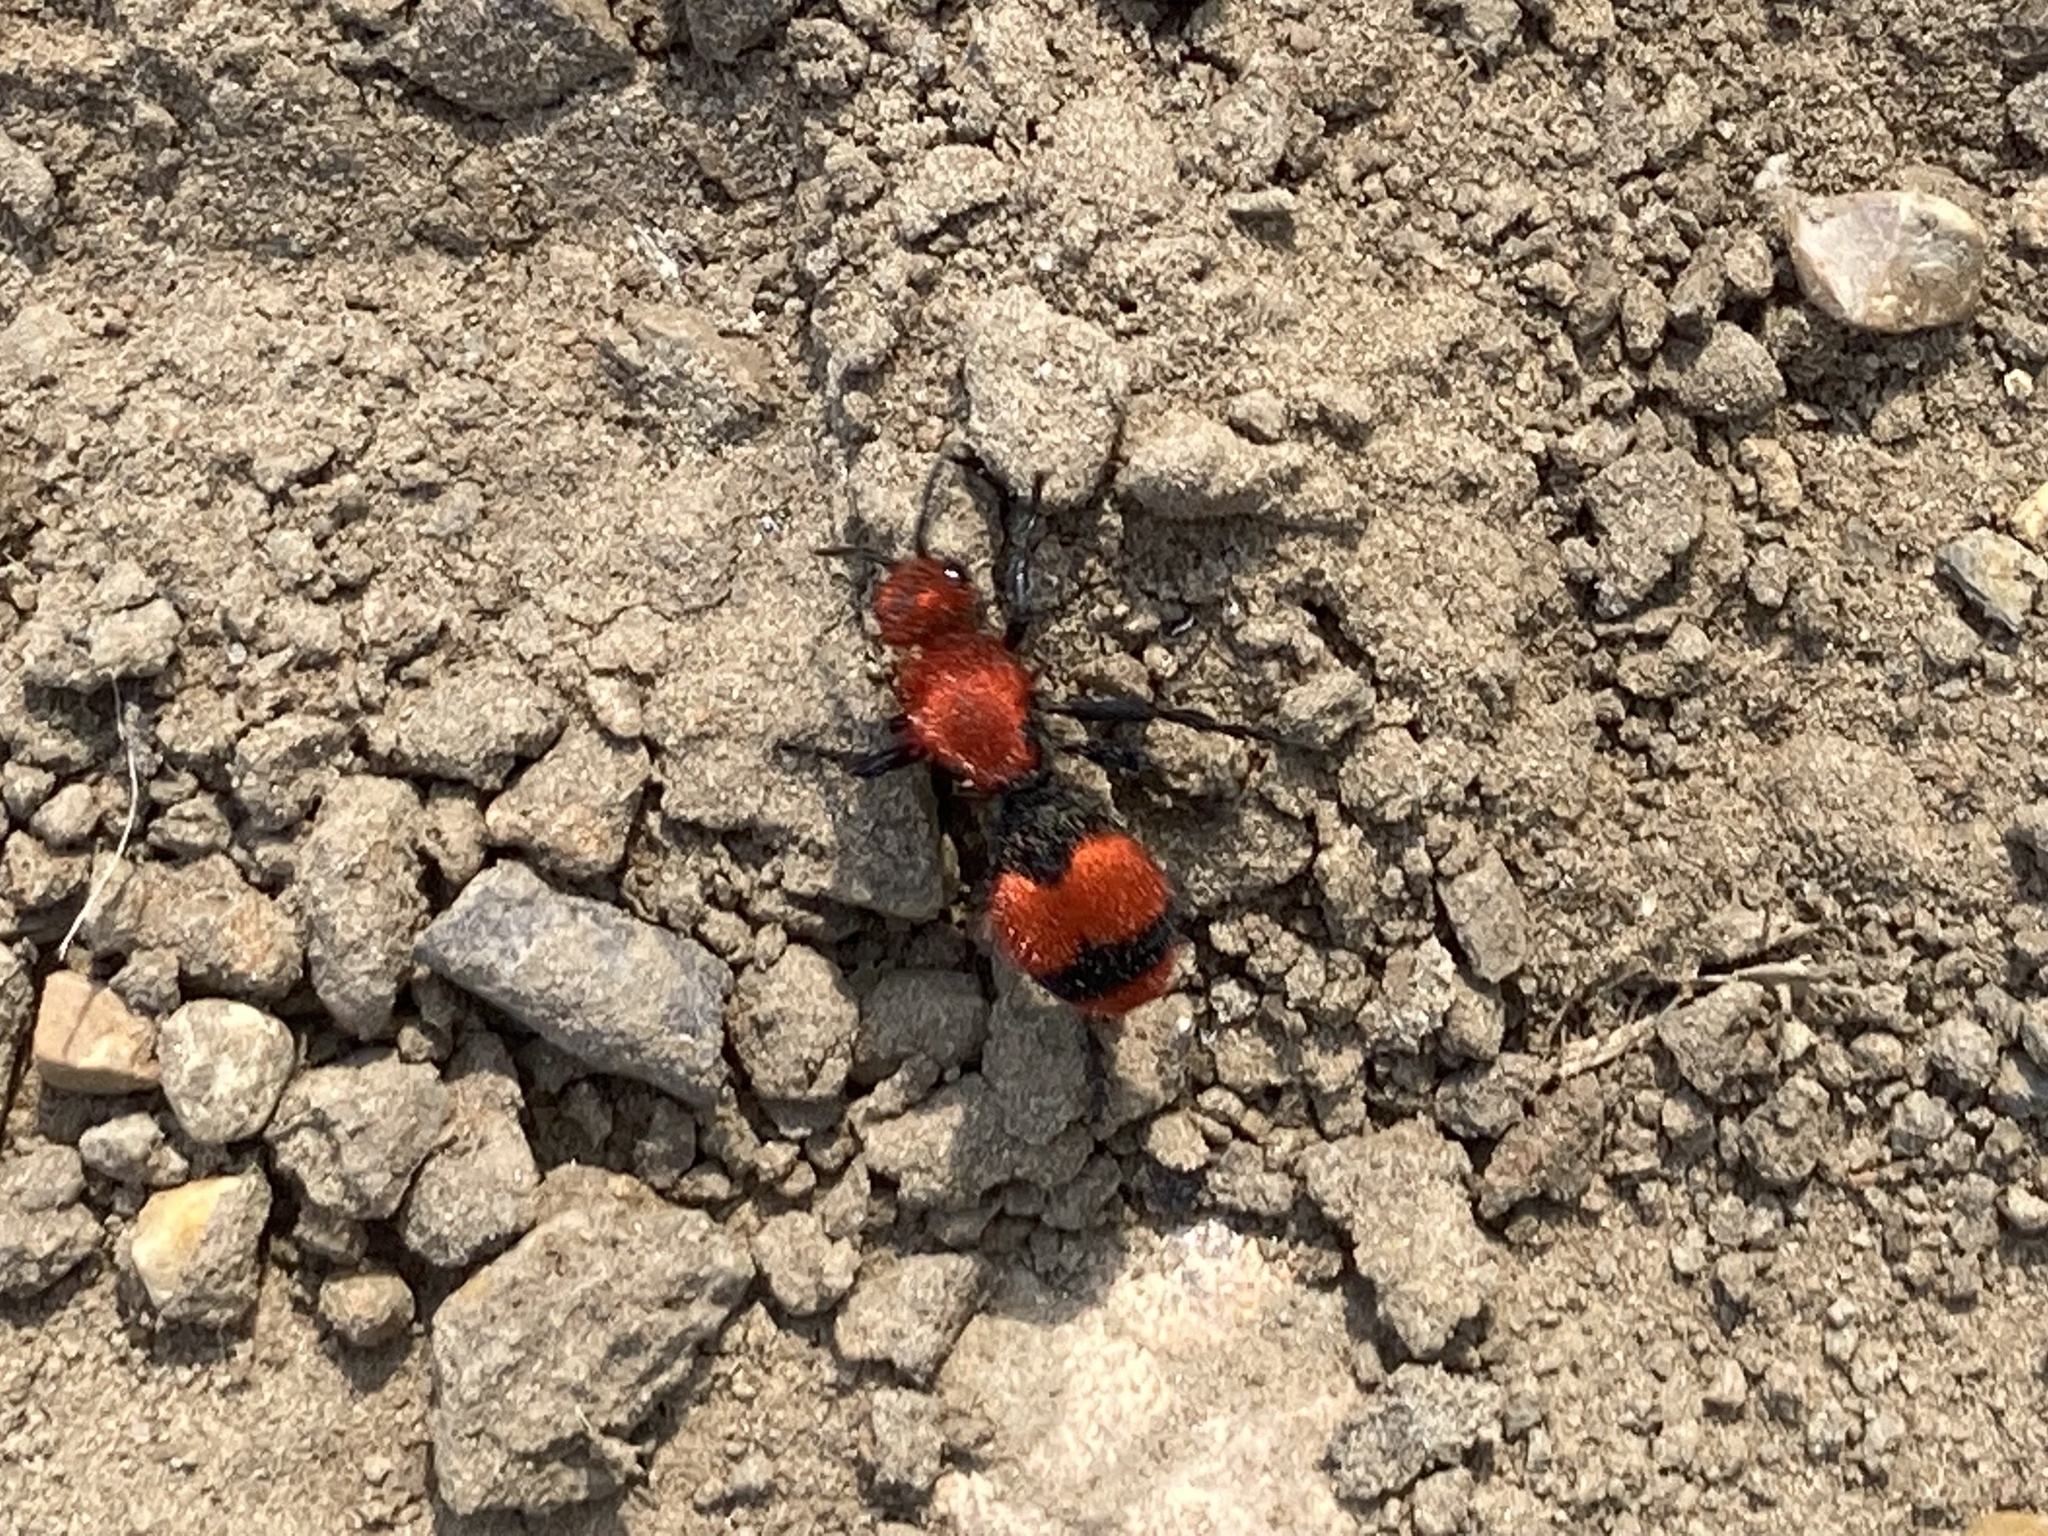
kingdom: Animalia
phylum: Arthropoda
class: Insecta
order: Hymenoptera
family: Mutillidae
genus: Dasymutilla
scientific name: Dasymutilla occidentalis
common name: Common eastern velvet ant
